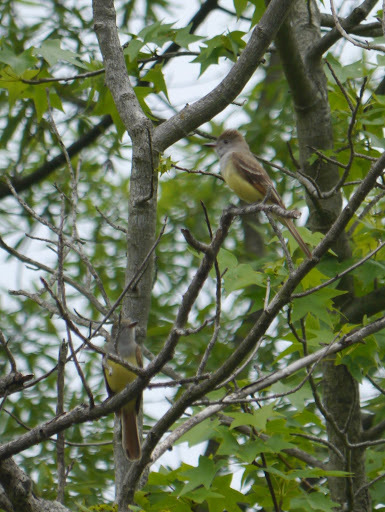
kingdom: Animalia
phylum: Chordata
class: Aves
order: Passeriformes
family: Tyrannidae
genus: Myiarchus
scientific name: Myiarchus crinitus
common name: Great crested flycatcher
